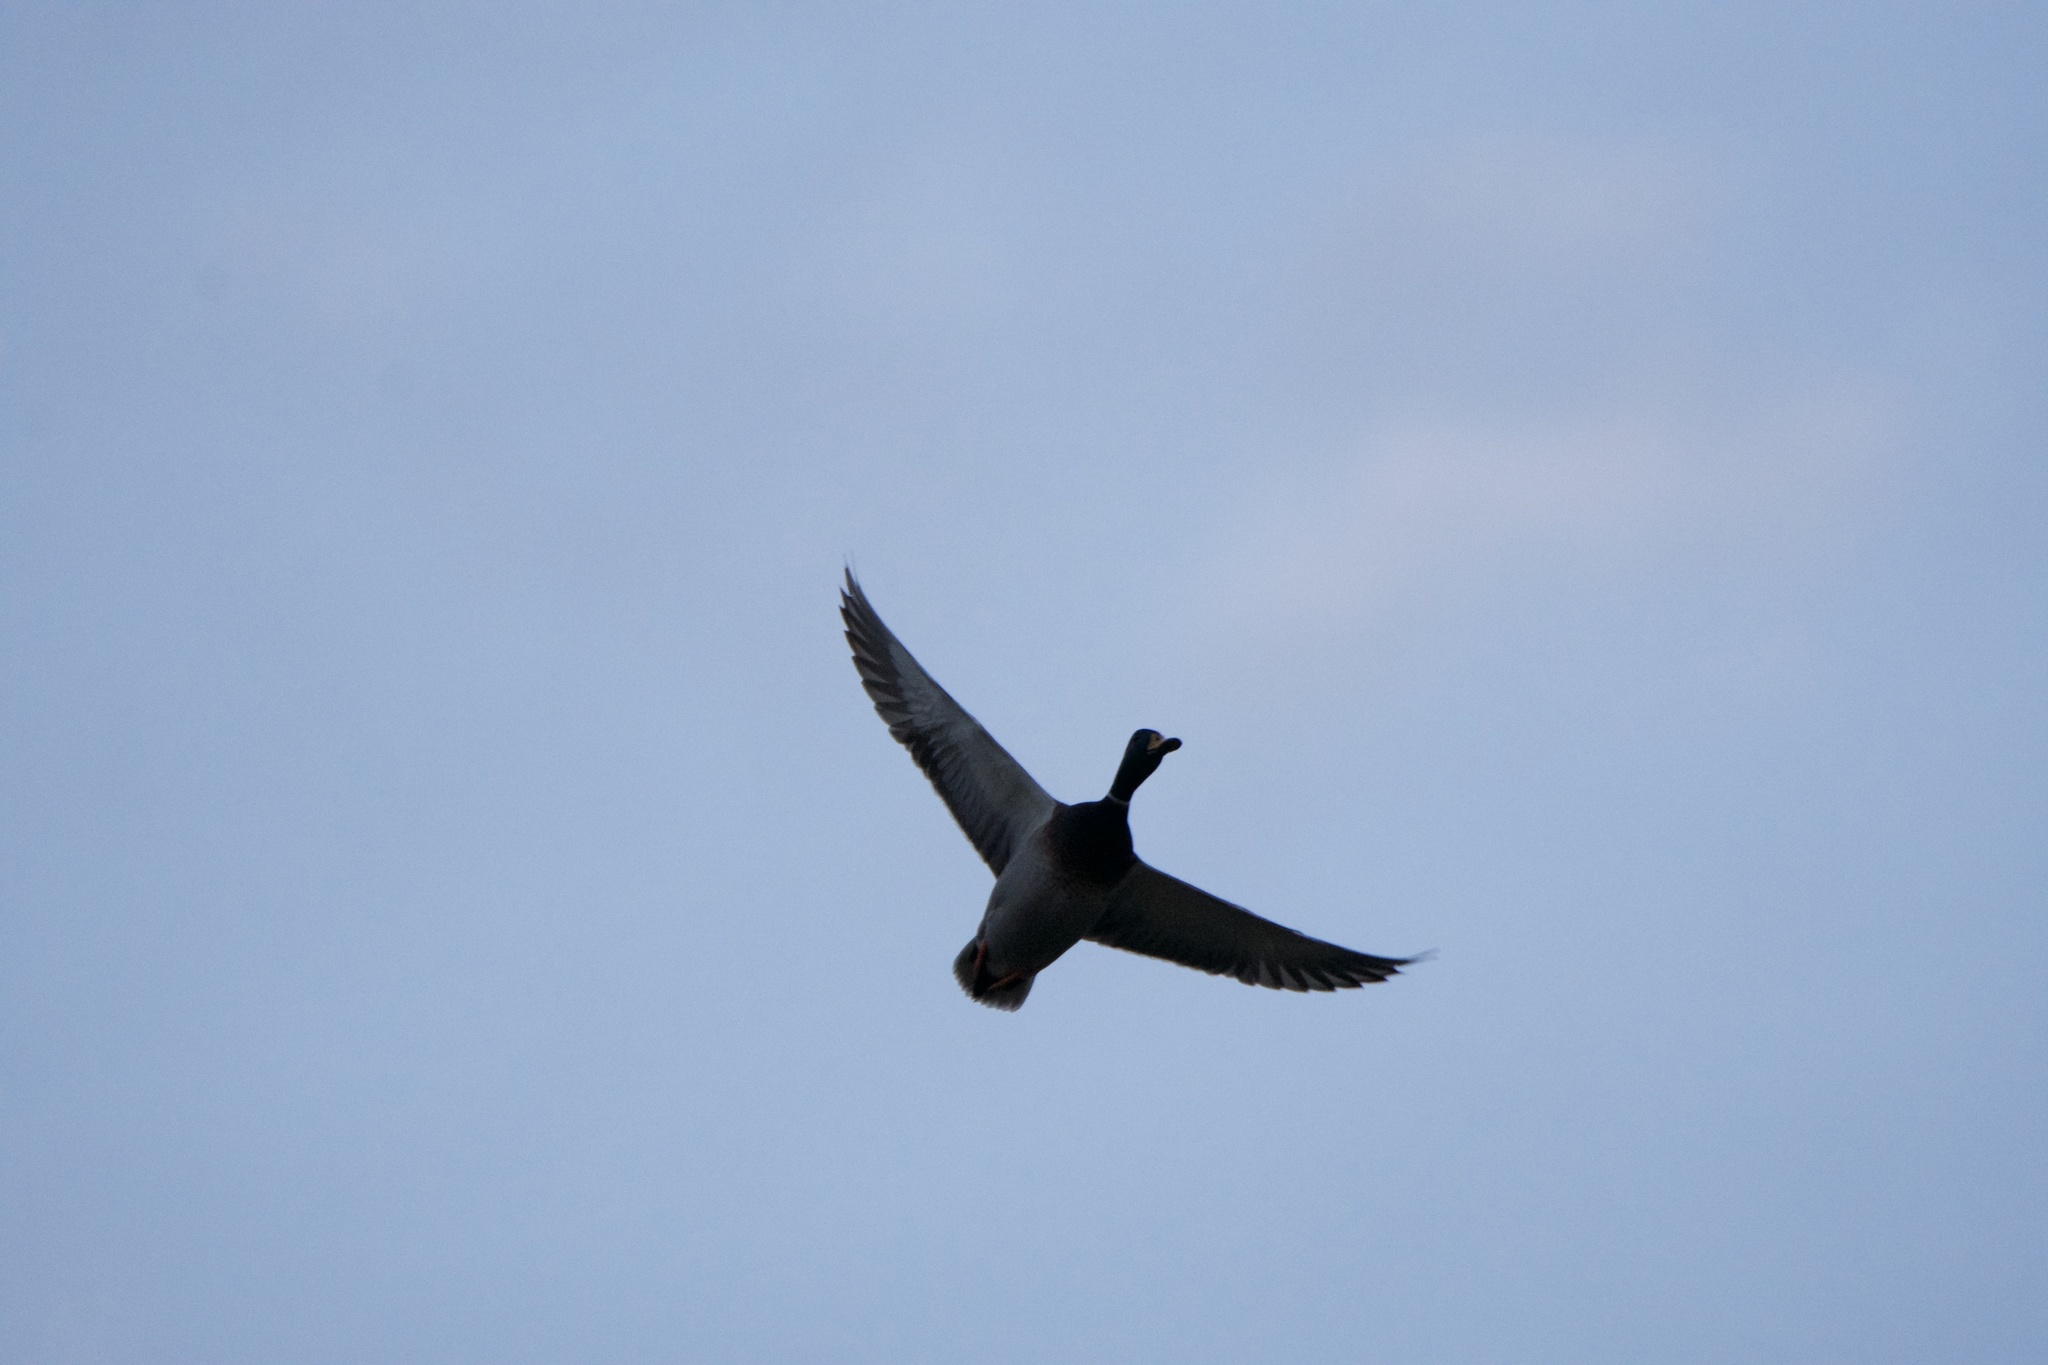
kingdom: Animalia
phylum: Chordata
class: Aves
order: Anseriformes
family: Anatidae
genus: Anas
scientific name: Anas platyrhynchos
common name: Mallard
